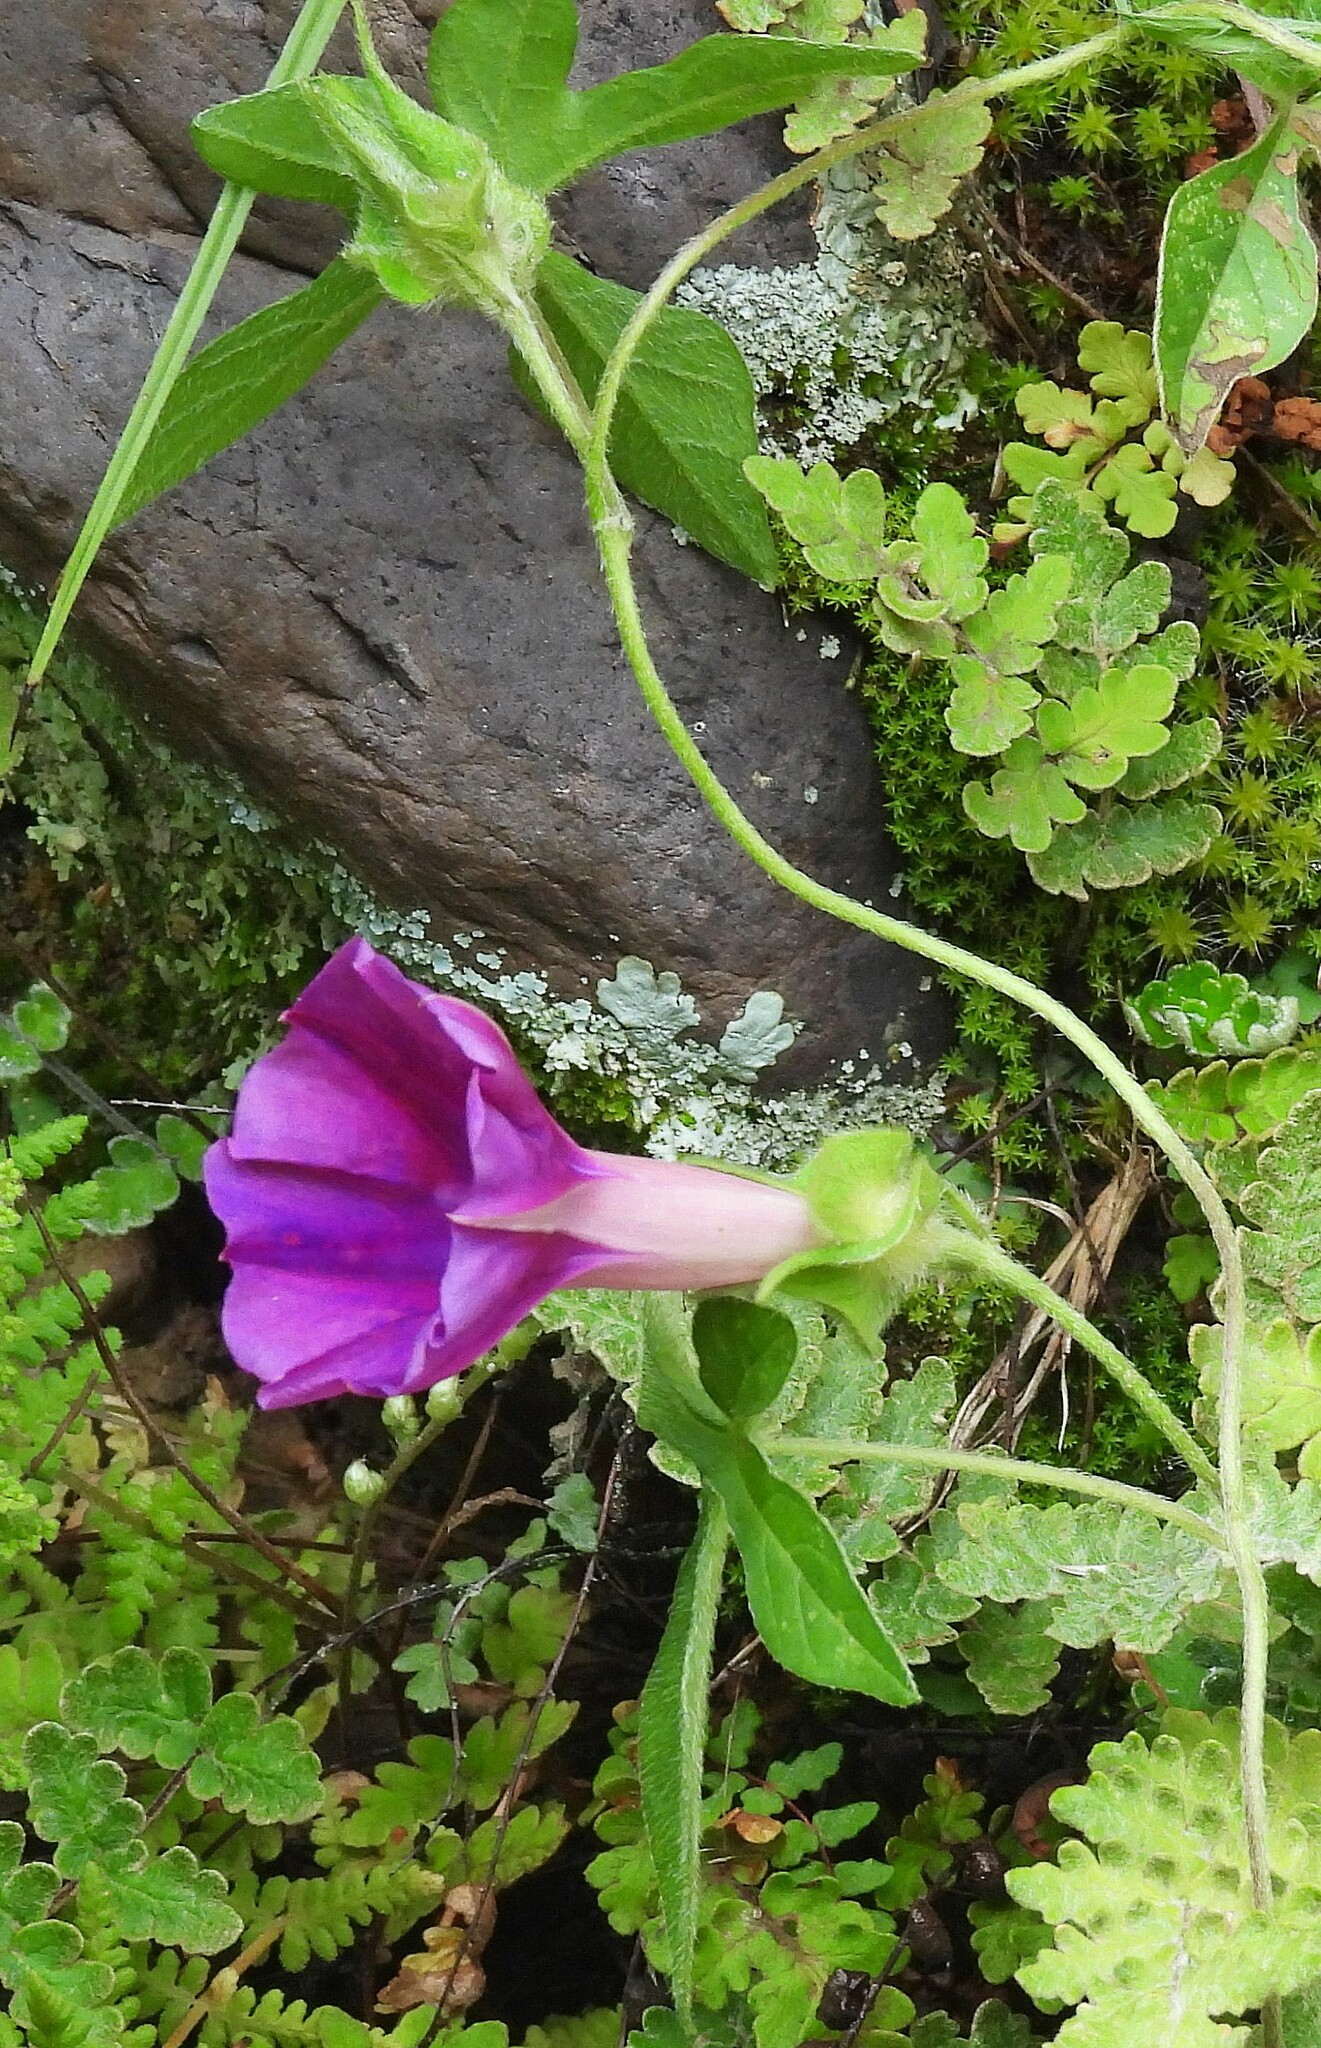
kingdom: Plantae
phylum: Tracheophyta
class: Magnoliopsida
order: Solanales
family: Convolvulaceae
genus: Ipomoea
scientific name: Ipomoea pubescens
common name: Silky morning-glory
